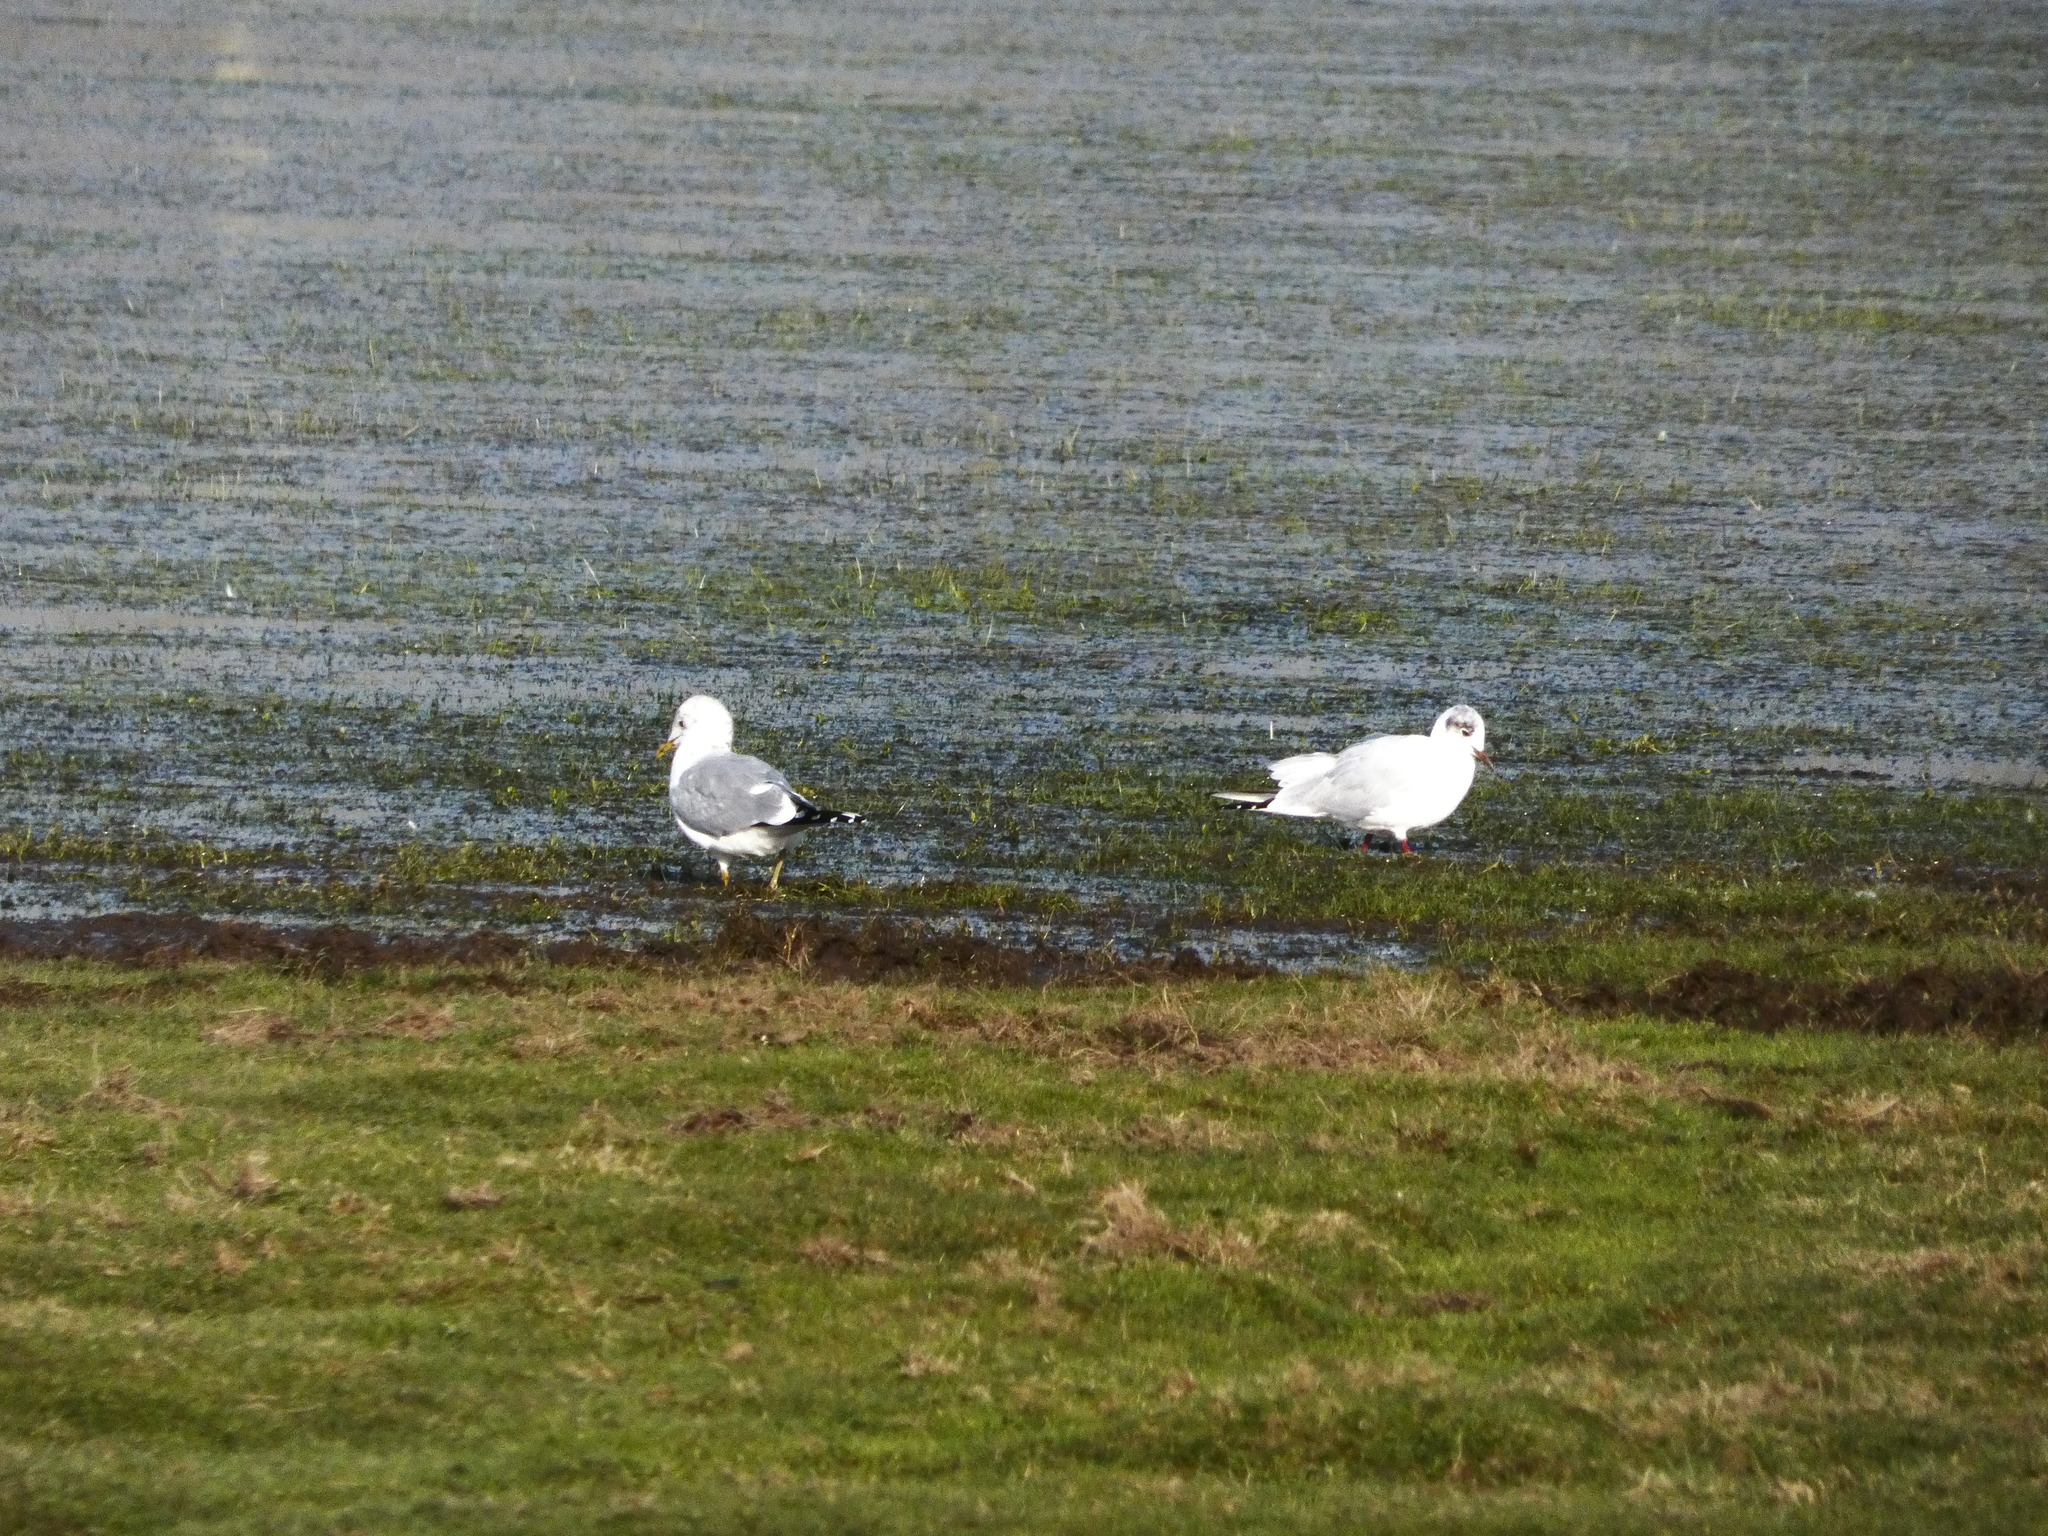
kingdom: Animalia
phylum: Chordata
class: Aves
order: Charadriiformes
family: Laridae
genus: Chroicocephalus
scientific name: Chroicocephalus ridibundus
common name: Black-headed gull
